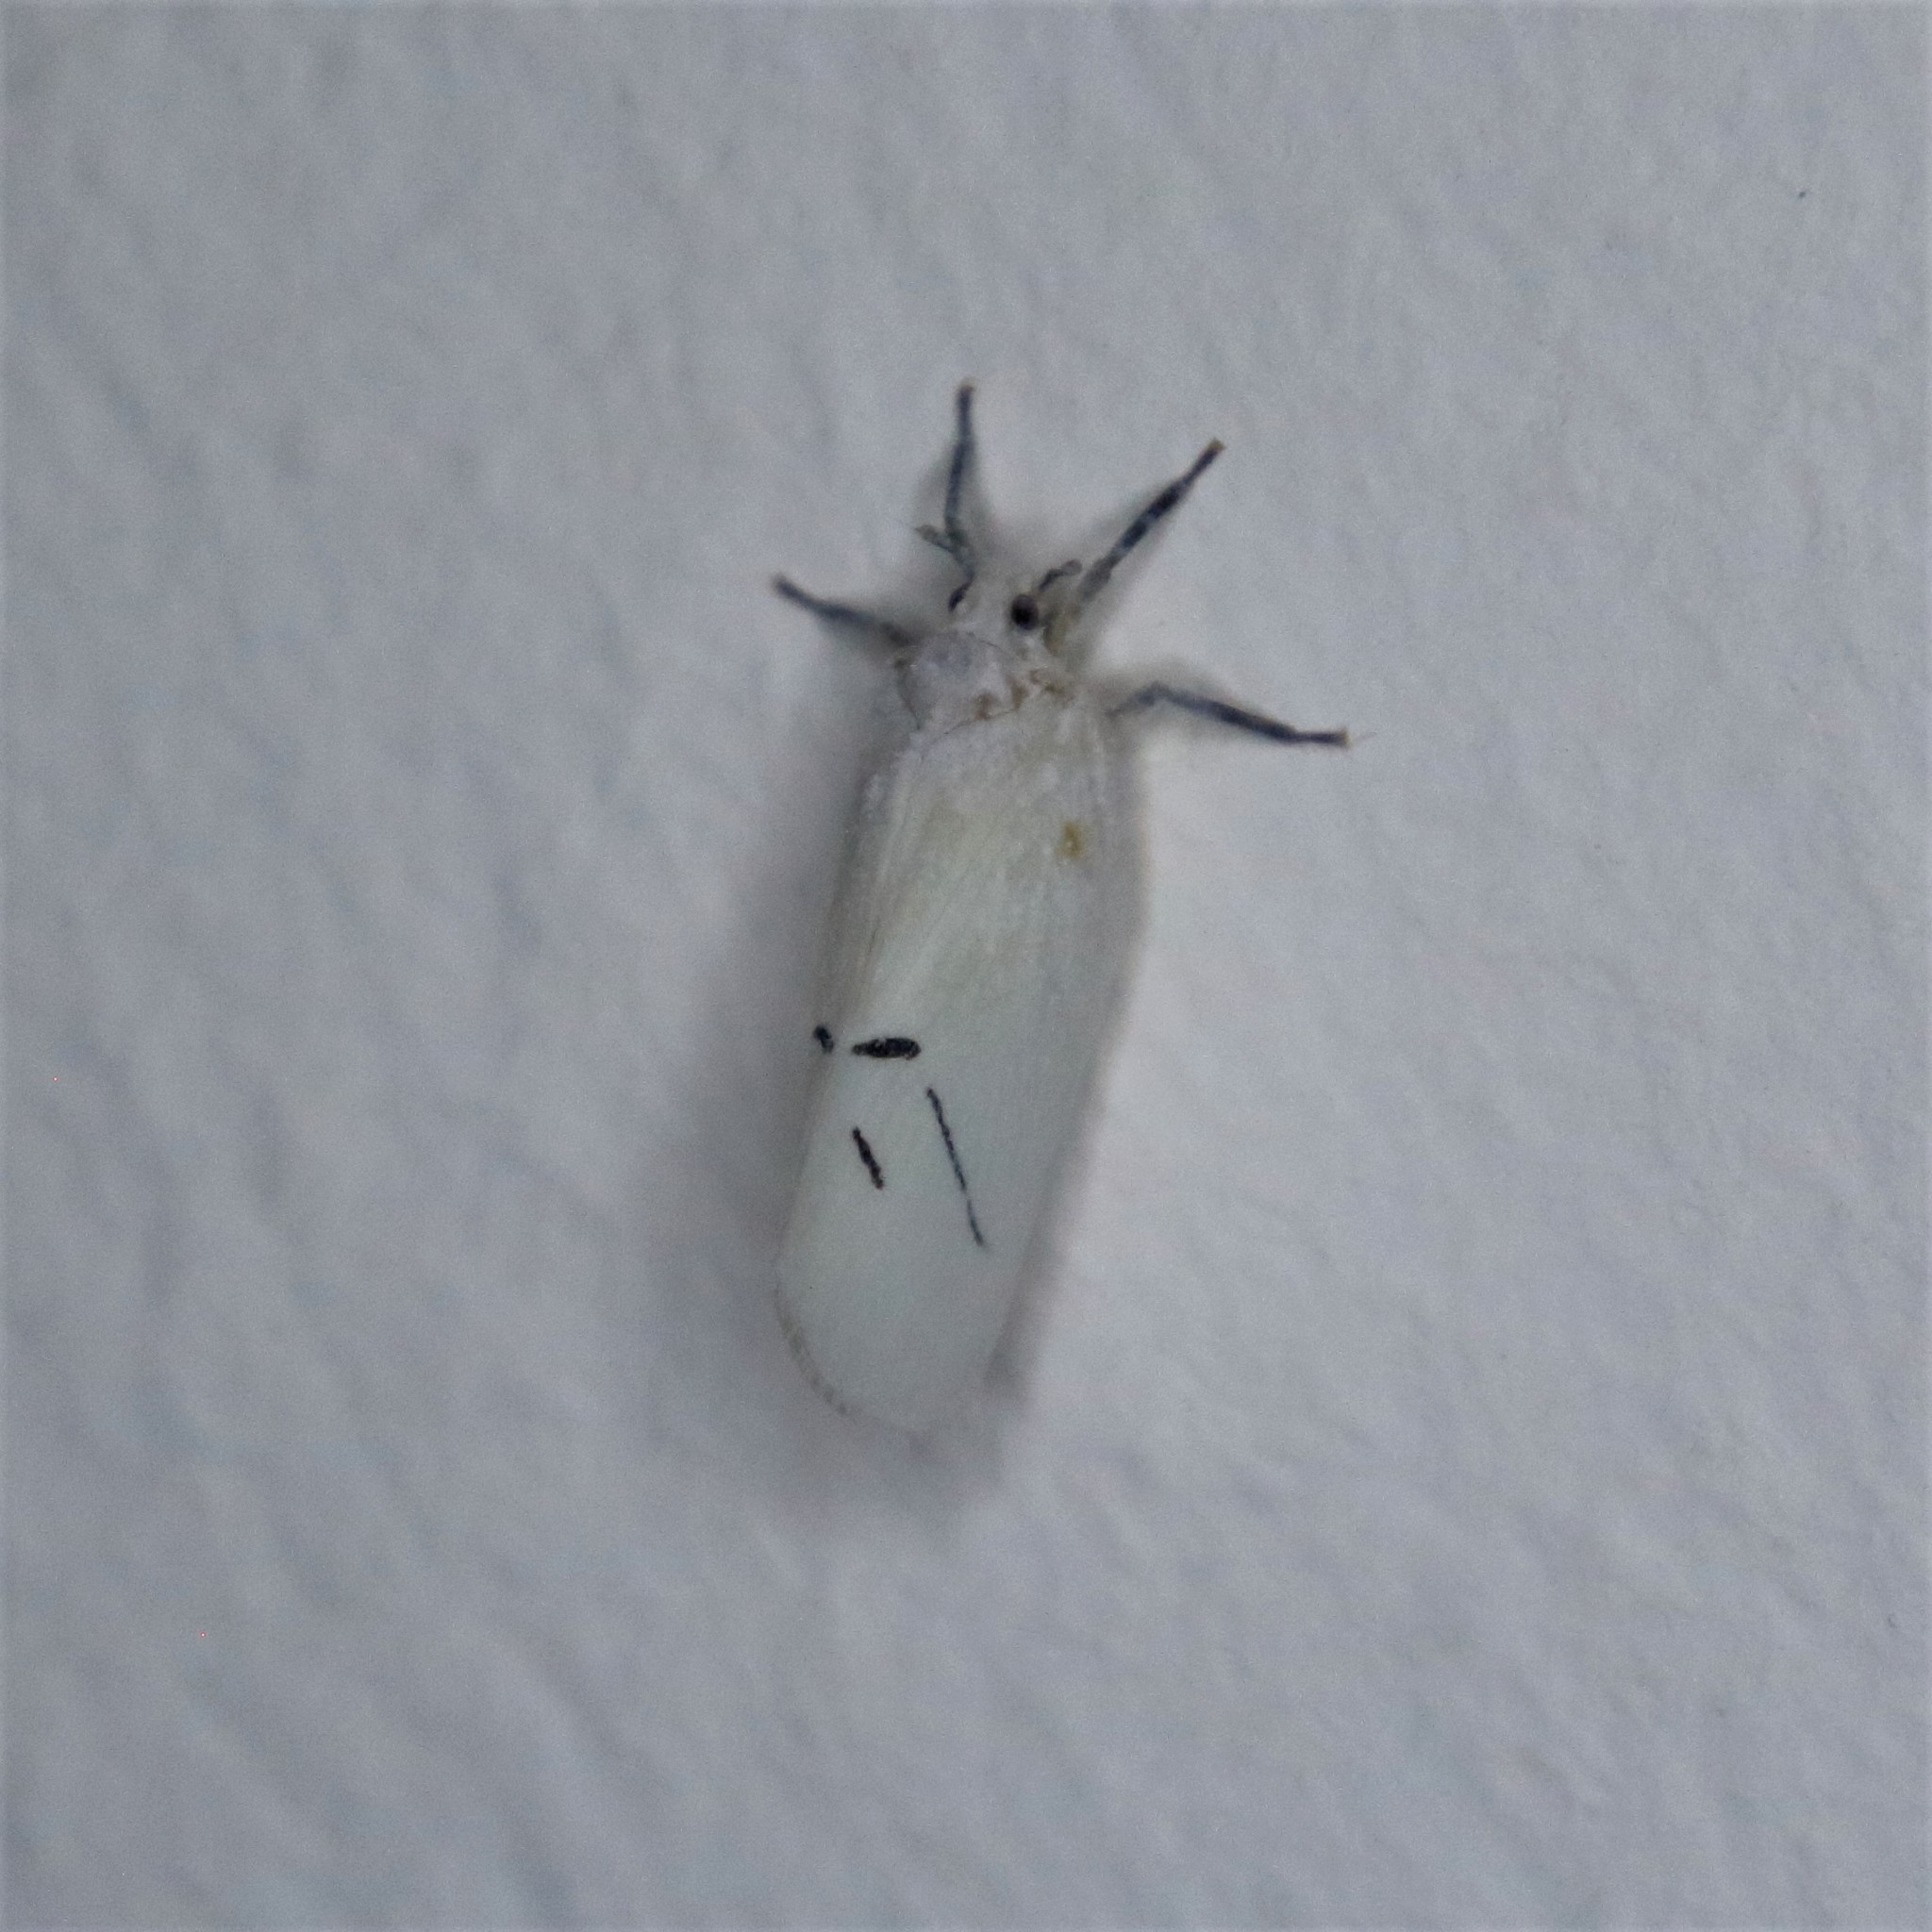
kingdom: Animalia
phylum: Arthropoda
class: Insecta
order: Hemiptera
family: Flatidae
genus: Cerynia
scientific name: Cerynia maria
